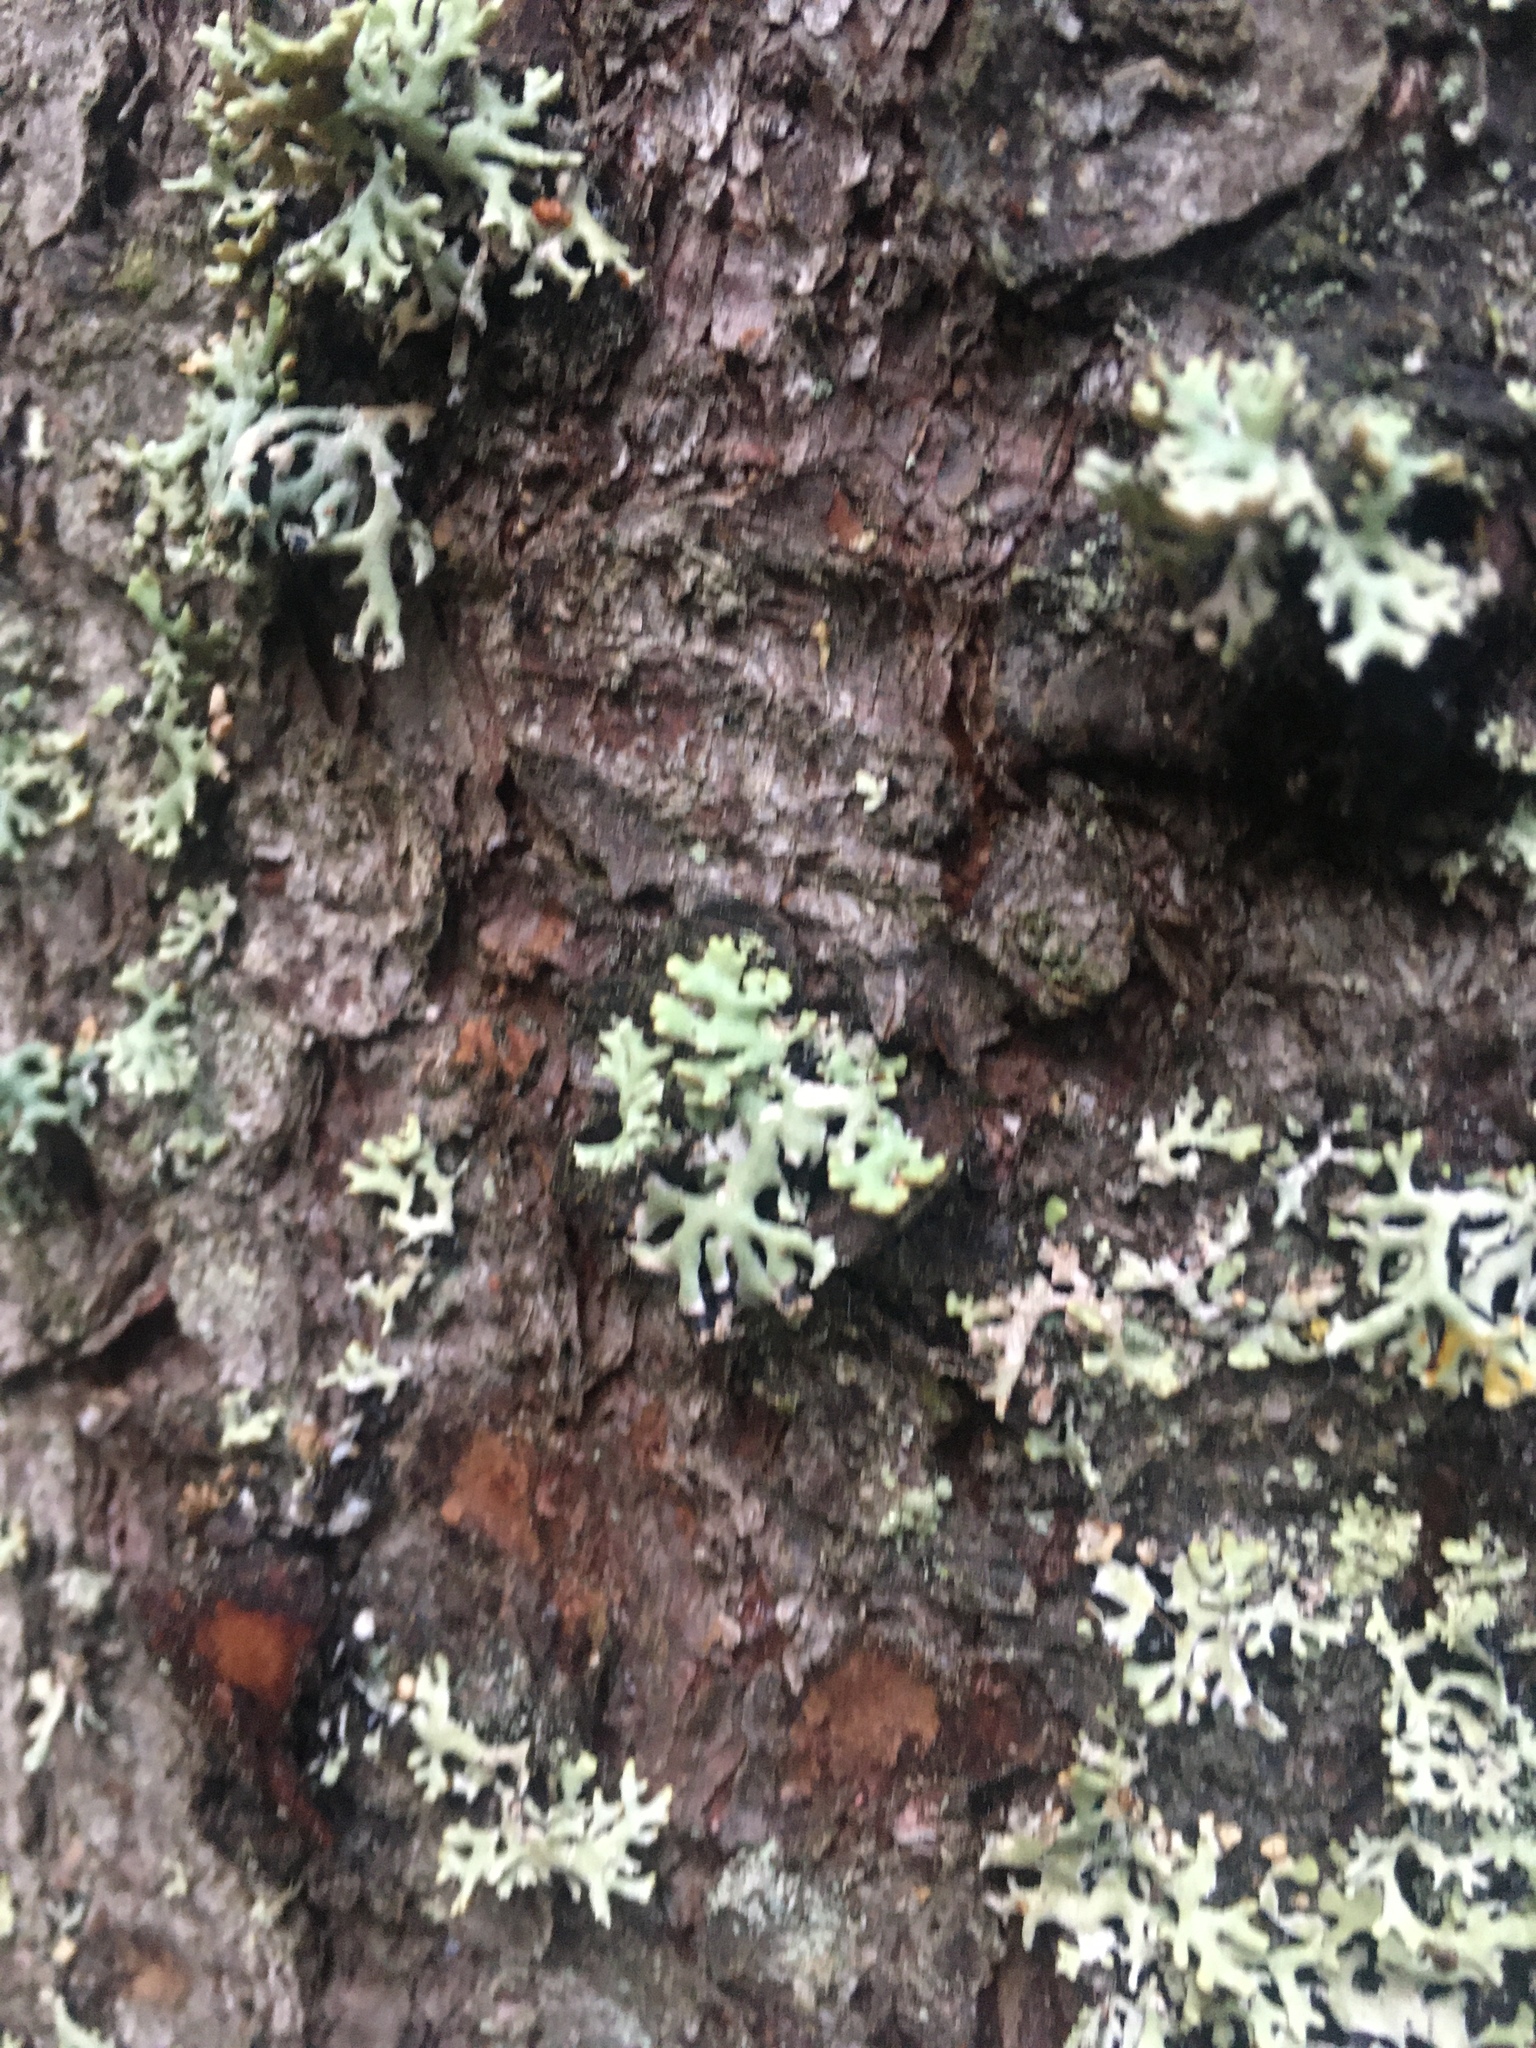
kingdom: Fungi
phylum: Ascomycota
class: Lecanoromycetes
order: Lecanorales
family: Parmeliaceae
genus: Hypogymnia
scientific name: Hypogymnia physodes
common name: Dark crottle
